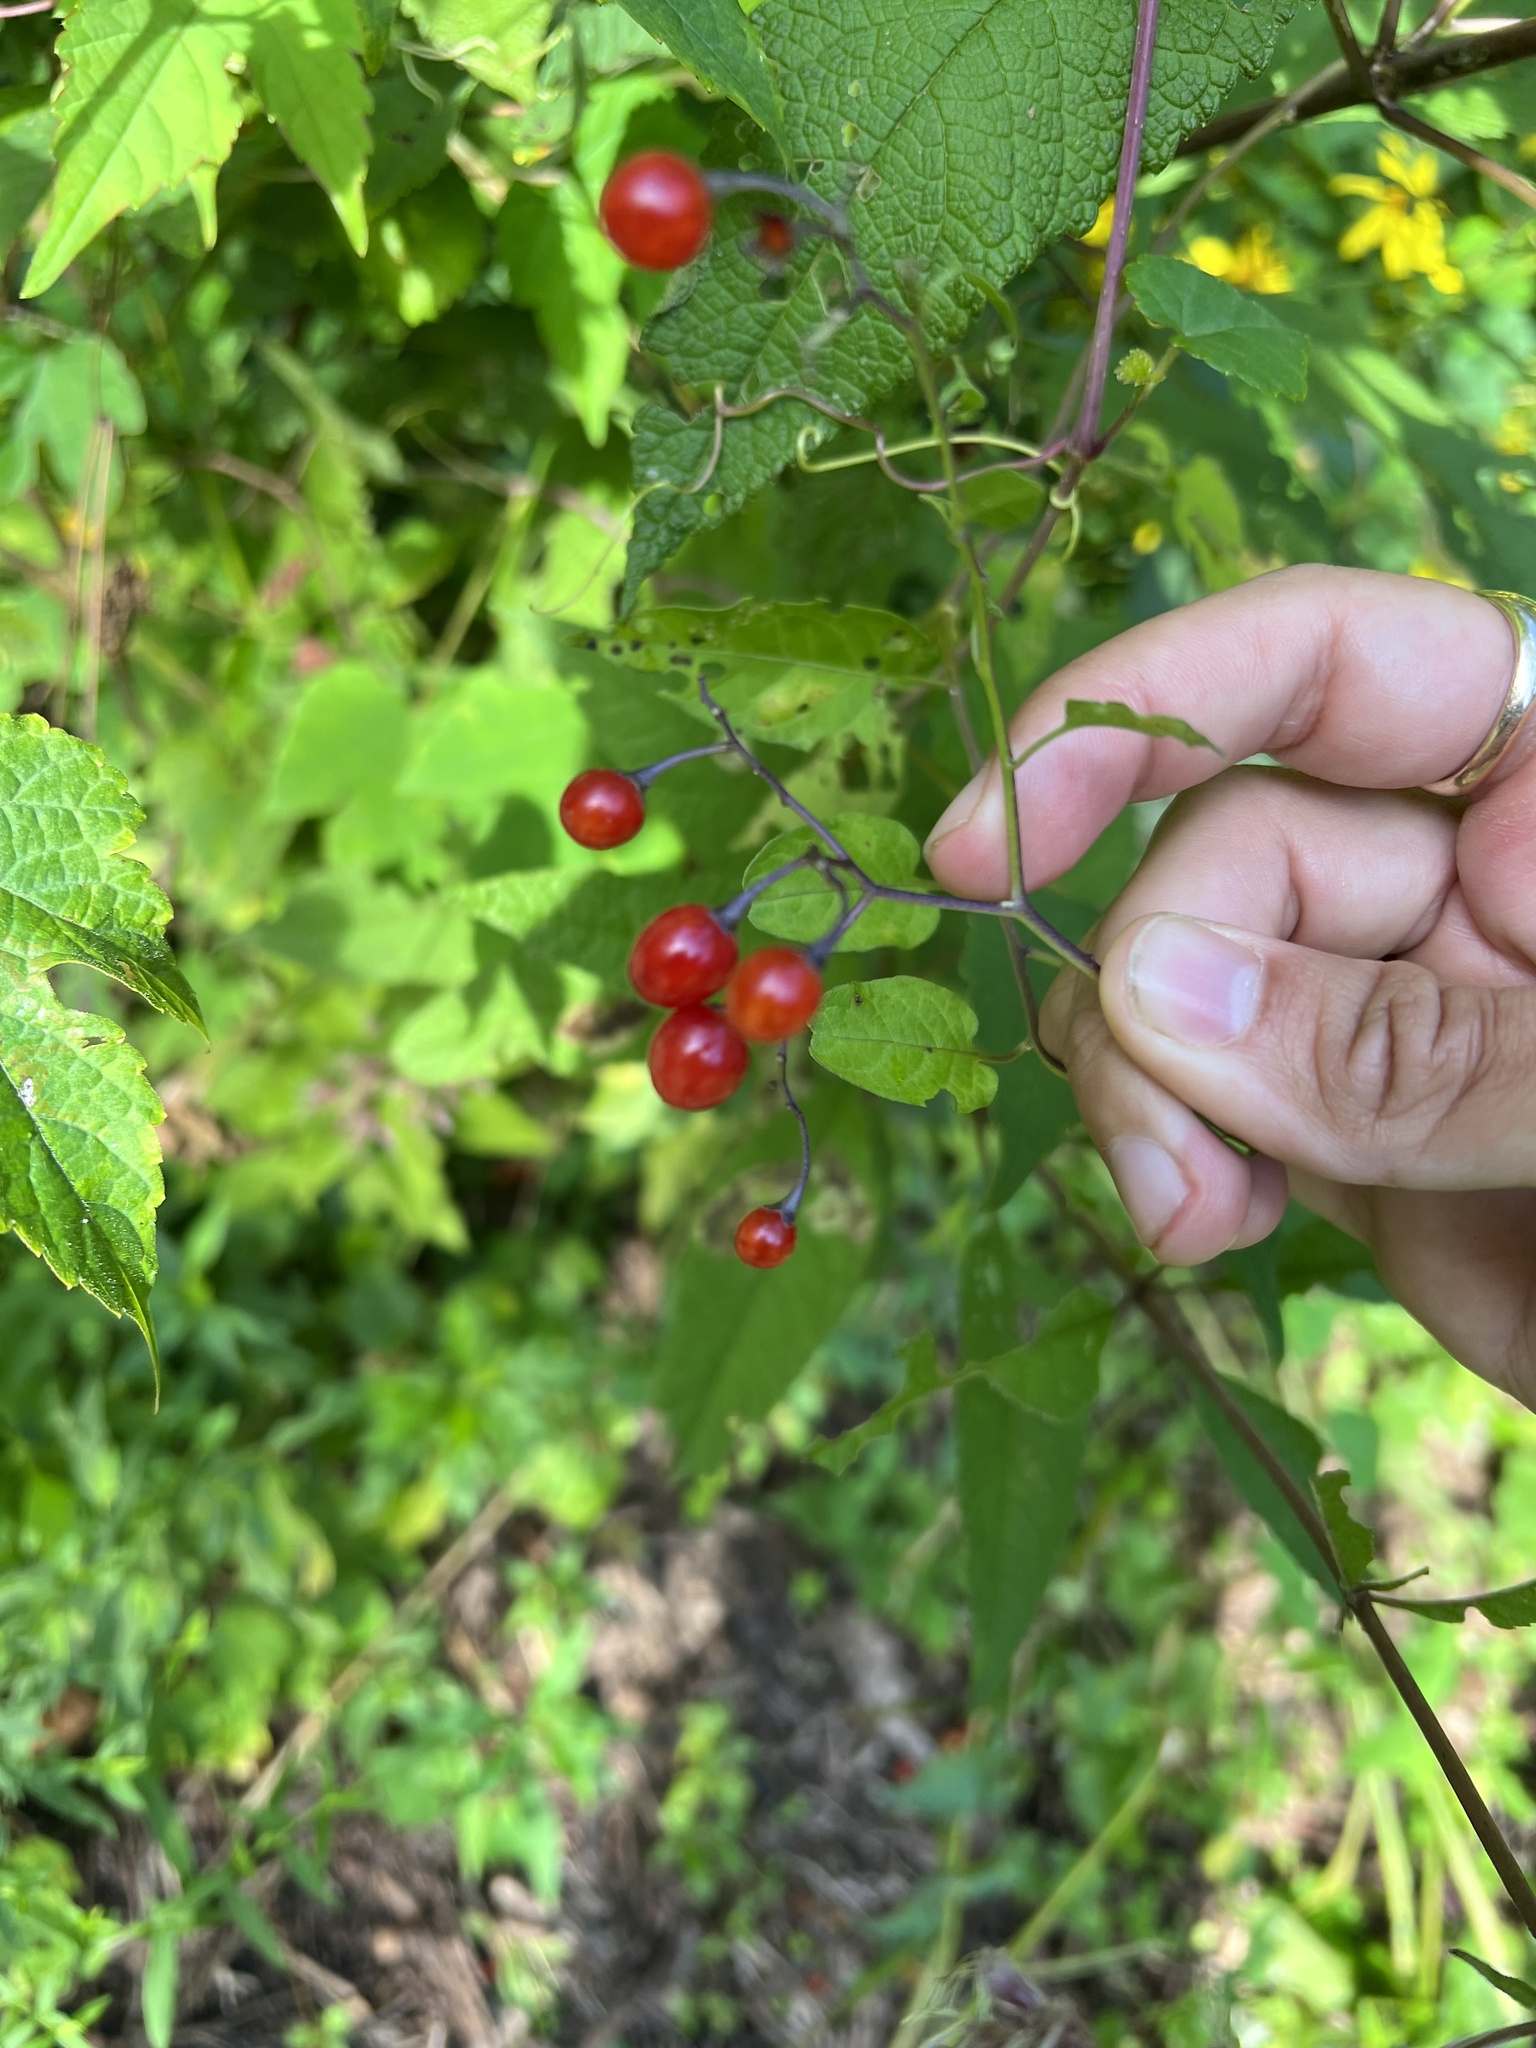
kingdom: Plantae
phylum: Tracheophyta
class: Magnoliopsida
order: Solanales
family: Solanaceae
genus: Solanum
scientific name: Solanum dulcamara
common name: Climbing nightshade
